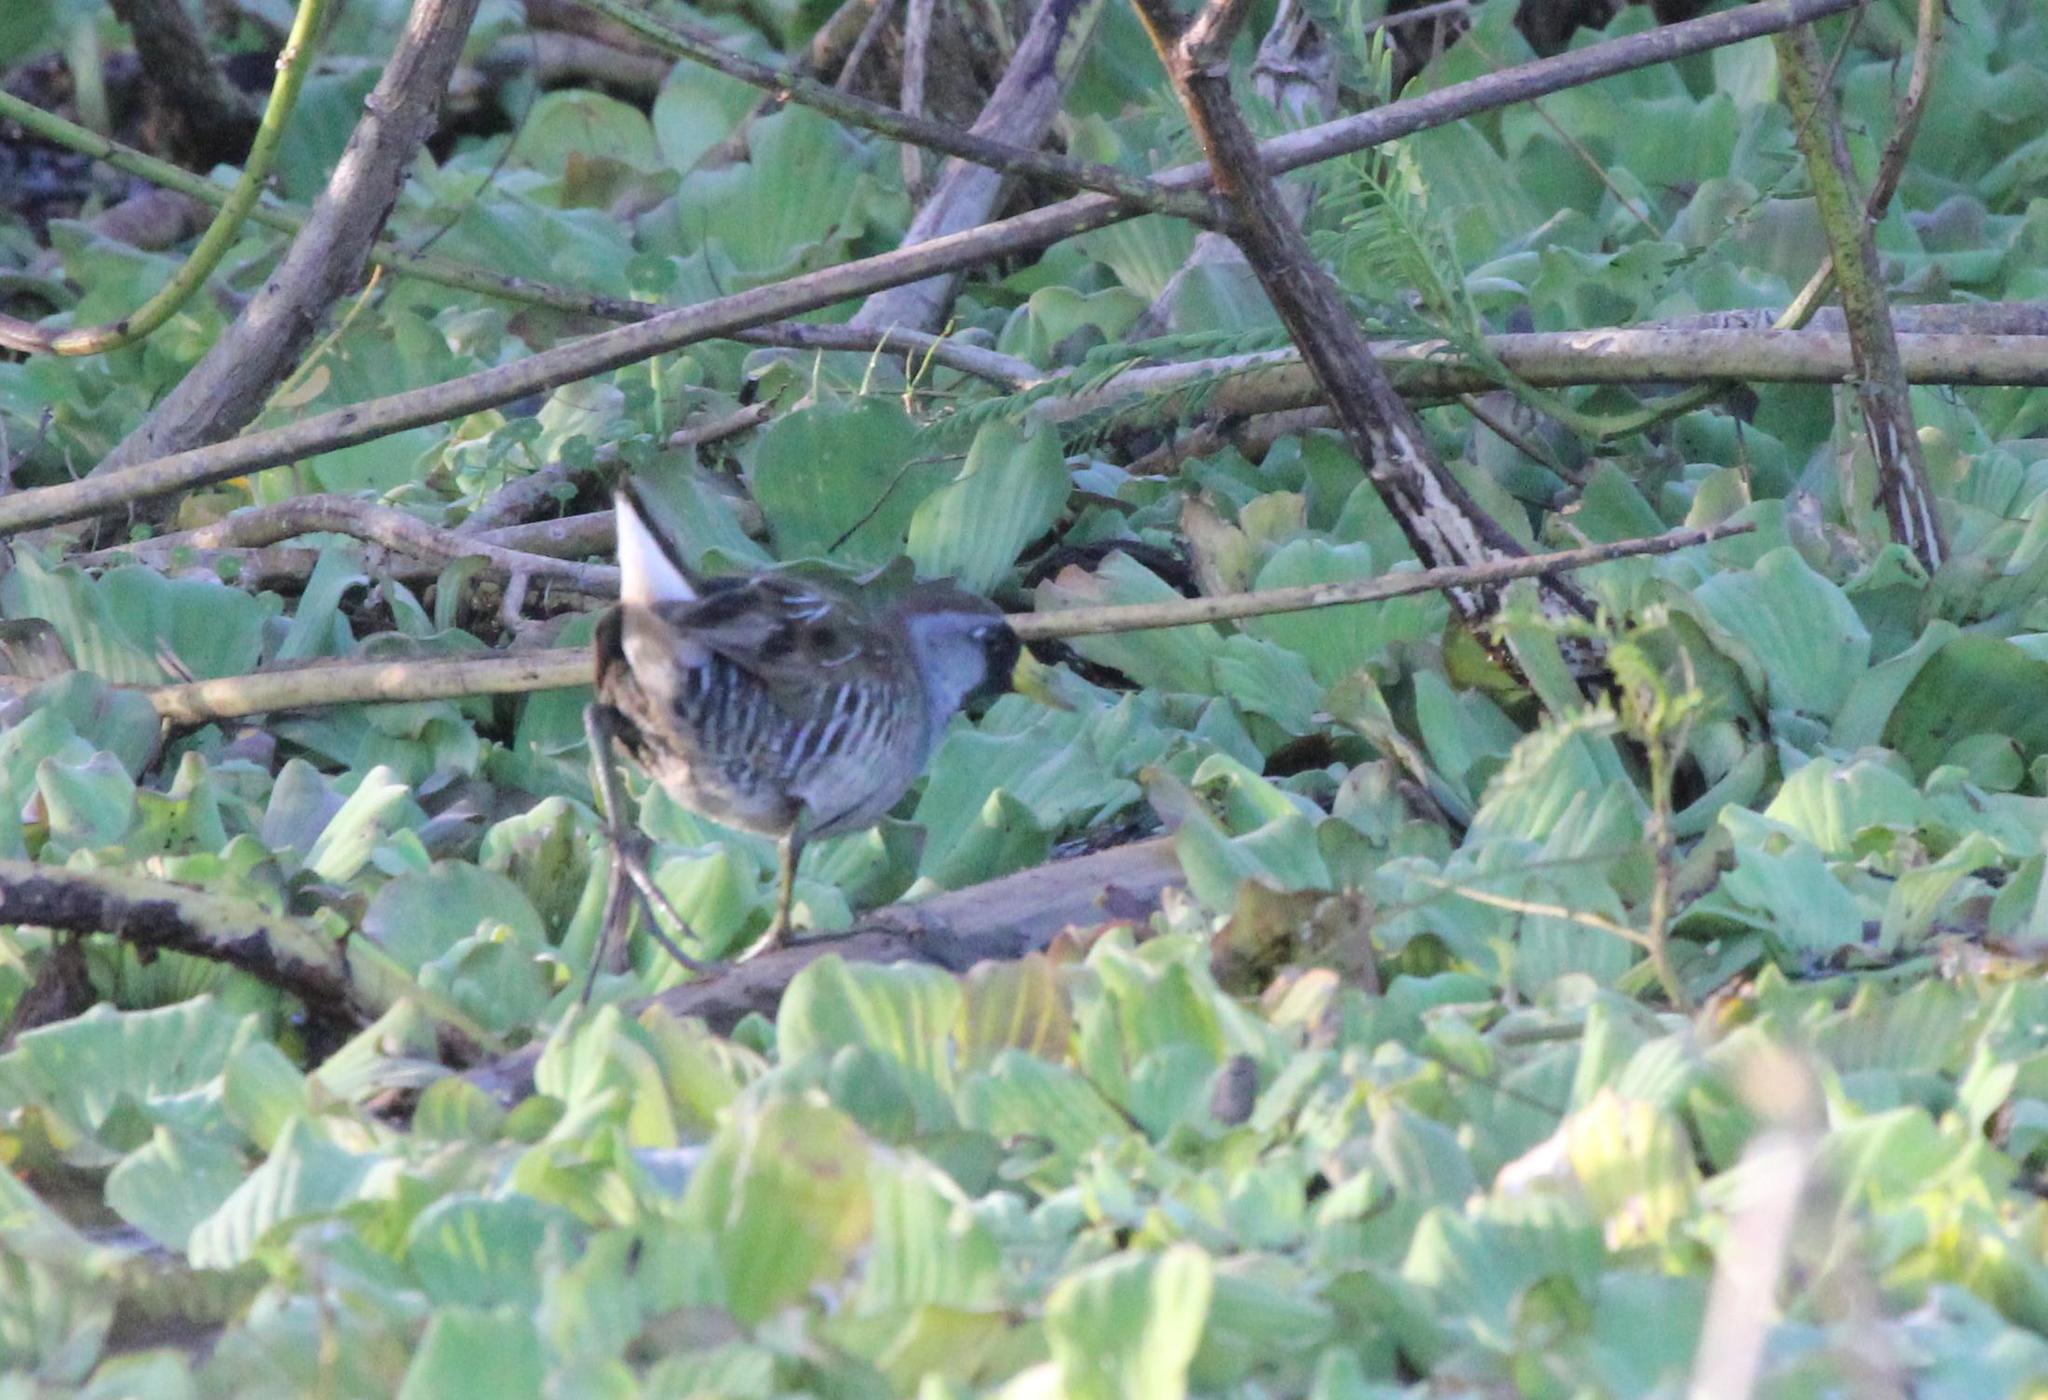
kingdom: Animalia
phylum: Chordata
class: Aves
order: Gruiformes
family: Rallidae
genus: Porzana
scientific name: Porzana carolina
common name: Sora
